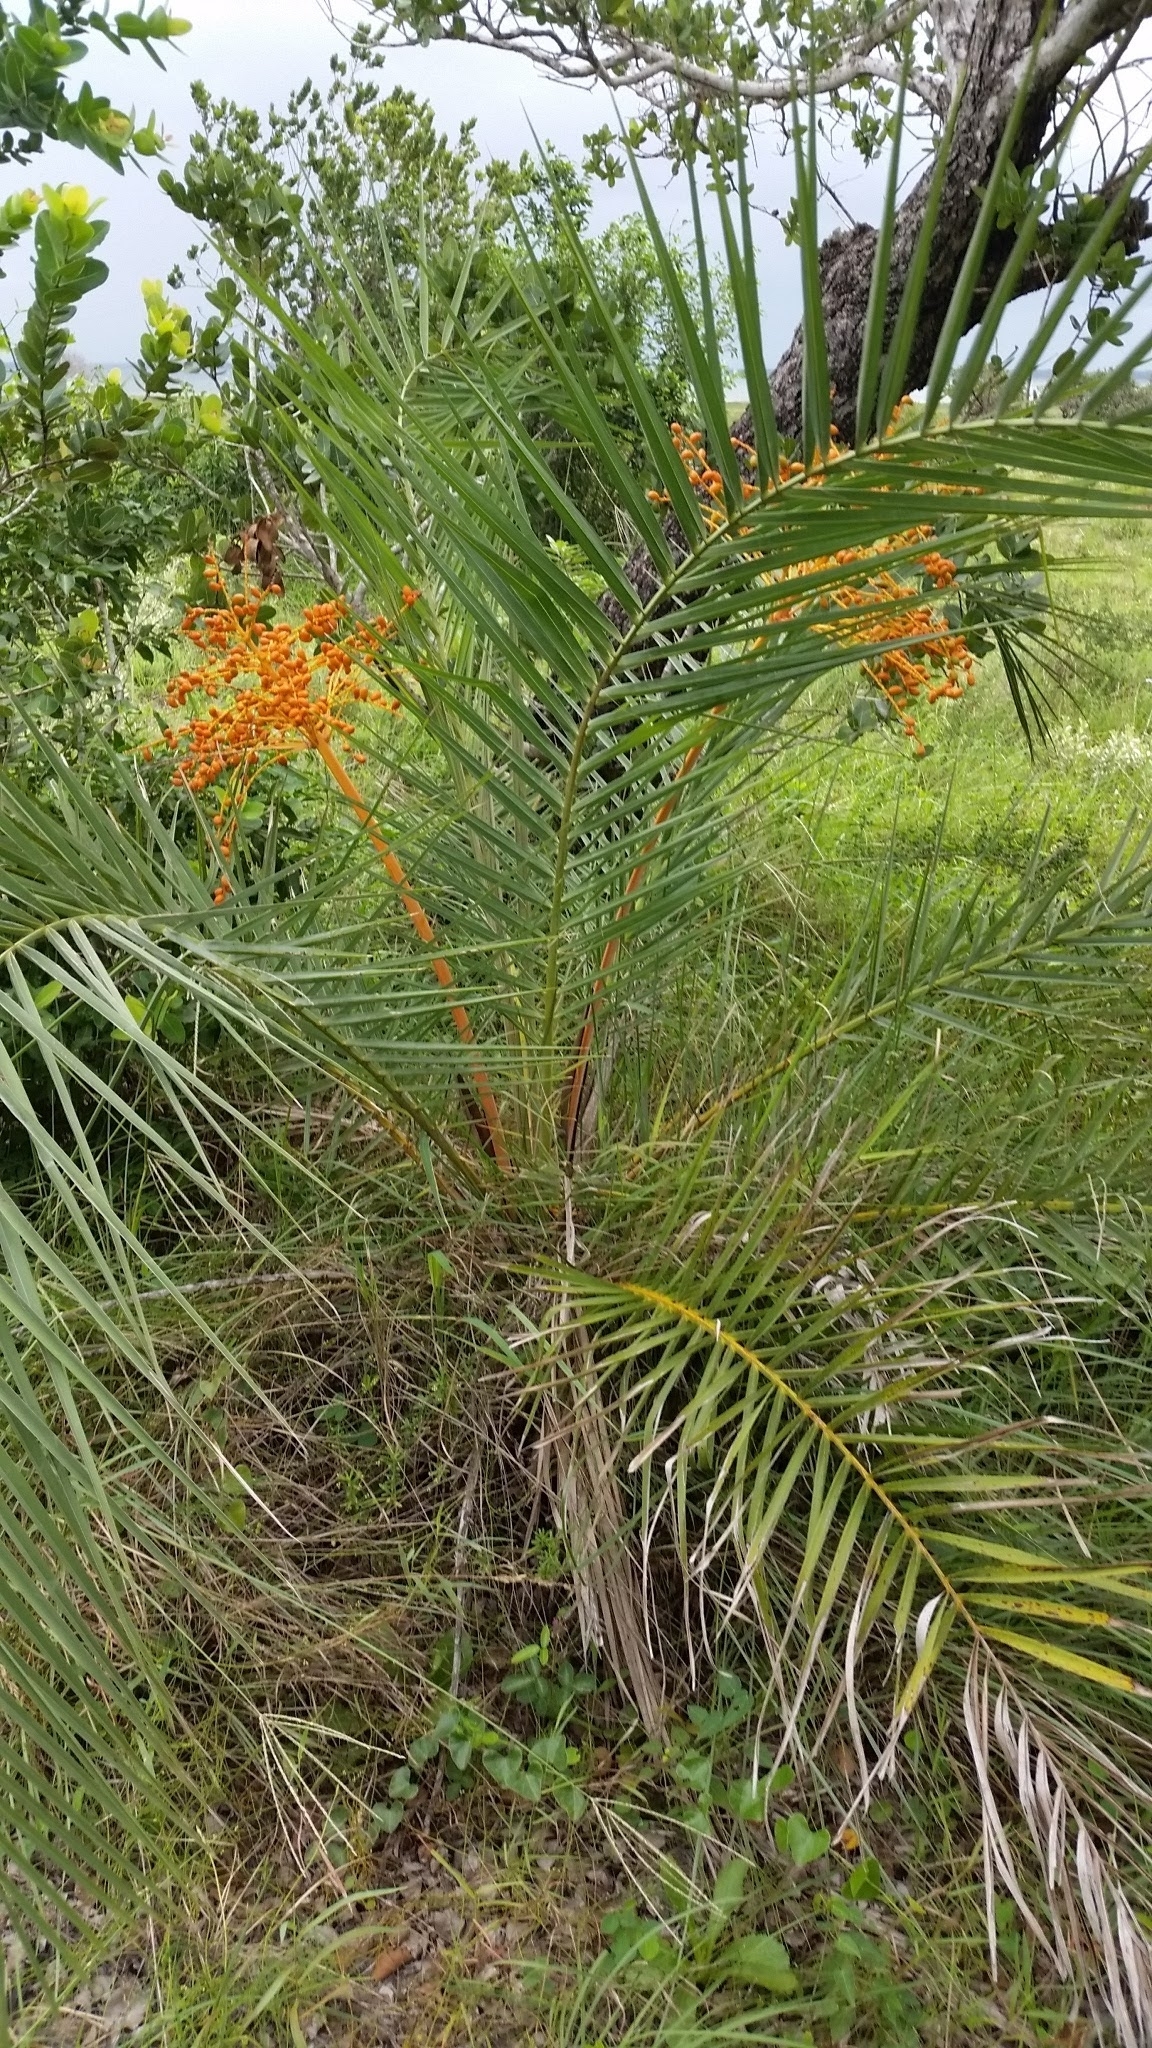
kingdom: Plantae
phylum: Tracheophyta
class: Liliopsida
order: Arecales
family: Arecaceae
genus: Phoenix
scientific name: Phoenix reclinata
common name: Senegal date palm
